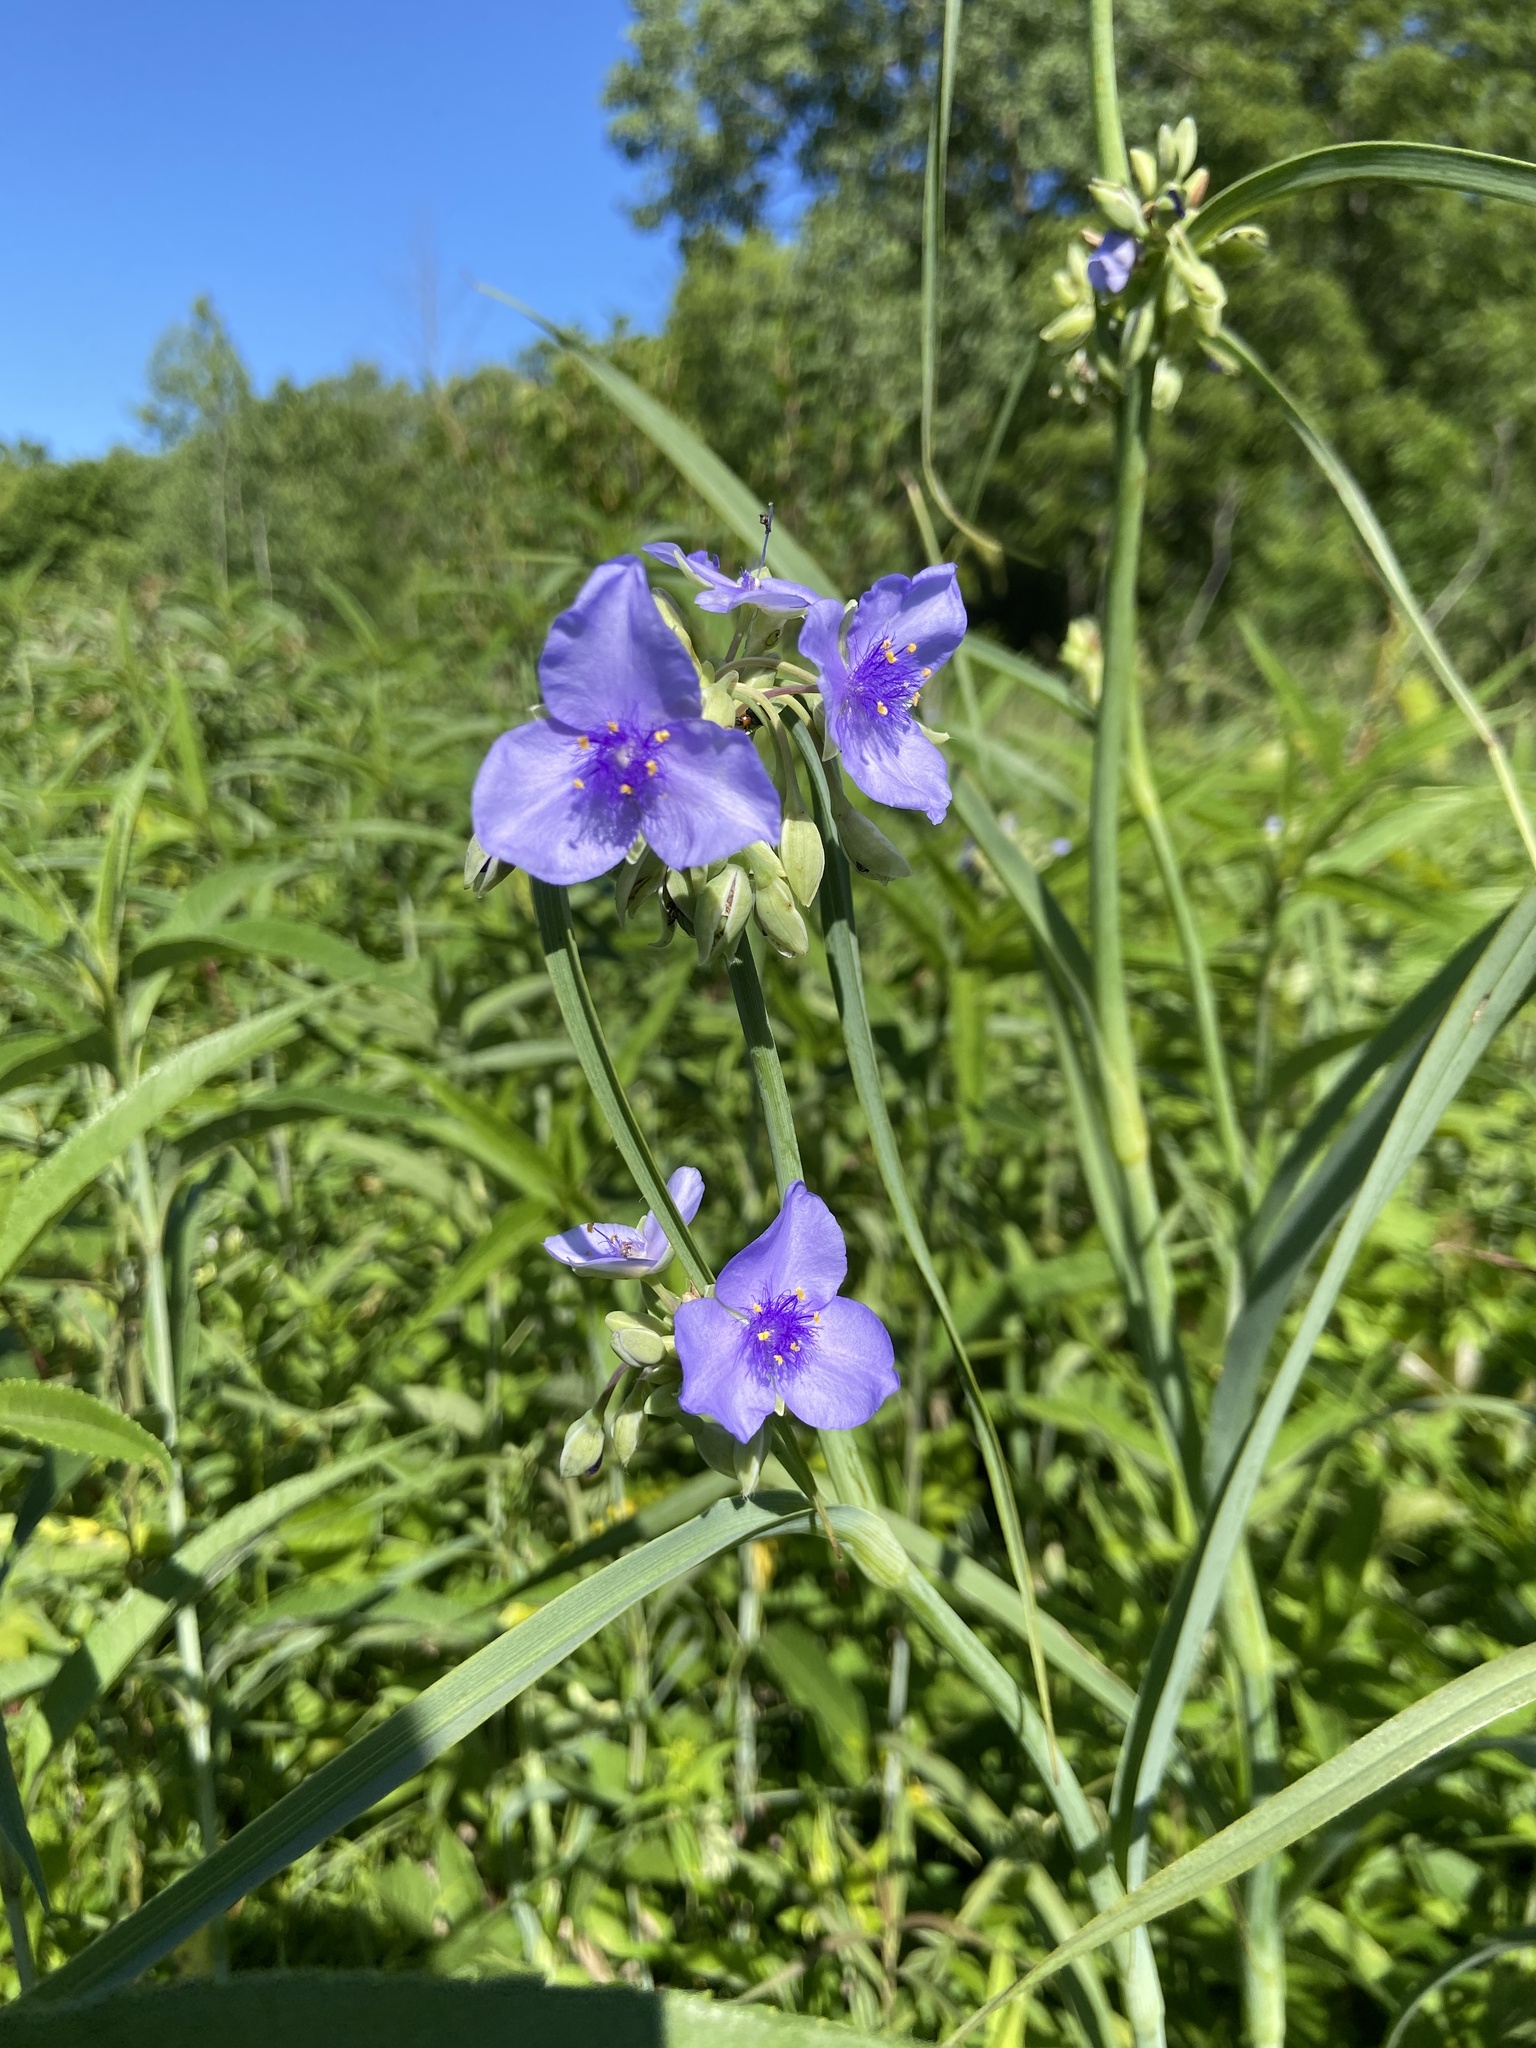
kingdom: Plantae
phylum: Tracheophyta
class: Liliopsida
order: Commelinales
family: Commelinaceae
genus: Tradescantia
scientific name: Tradescantia ohiensis
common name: Ohio spiderwort
